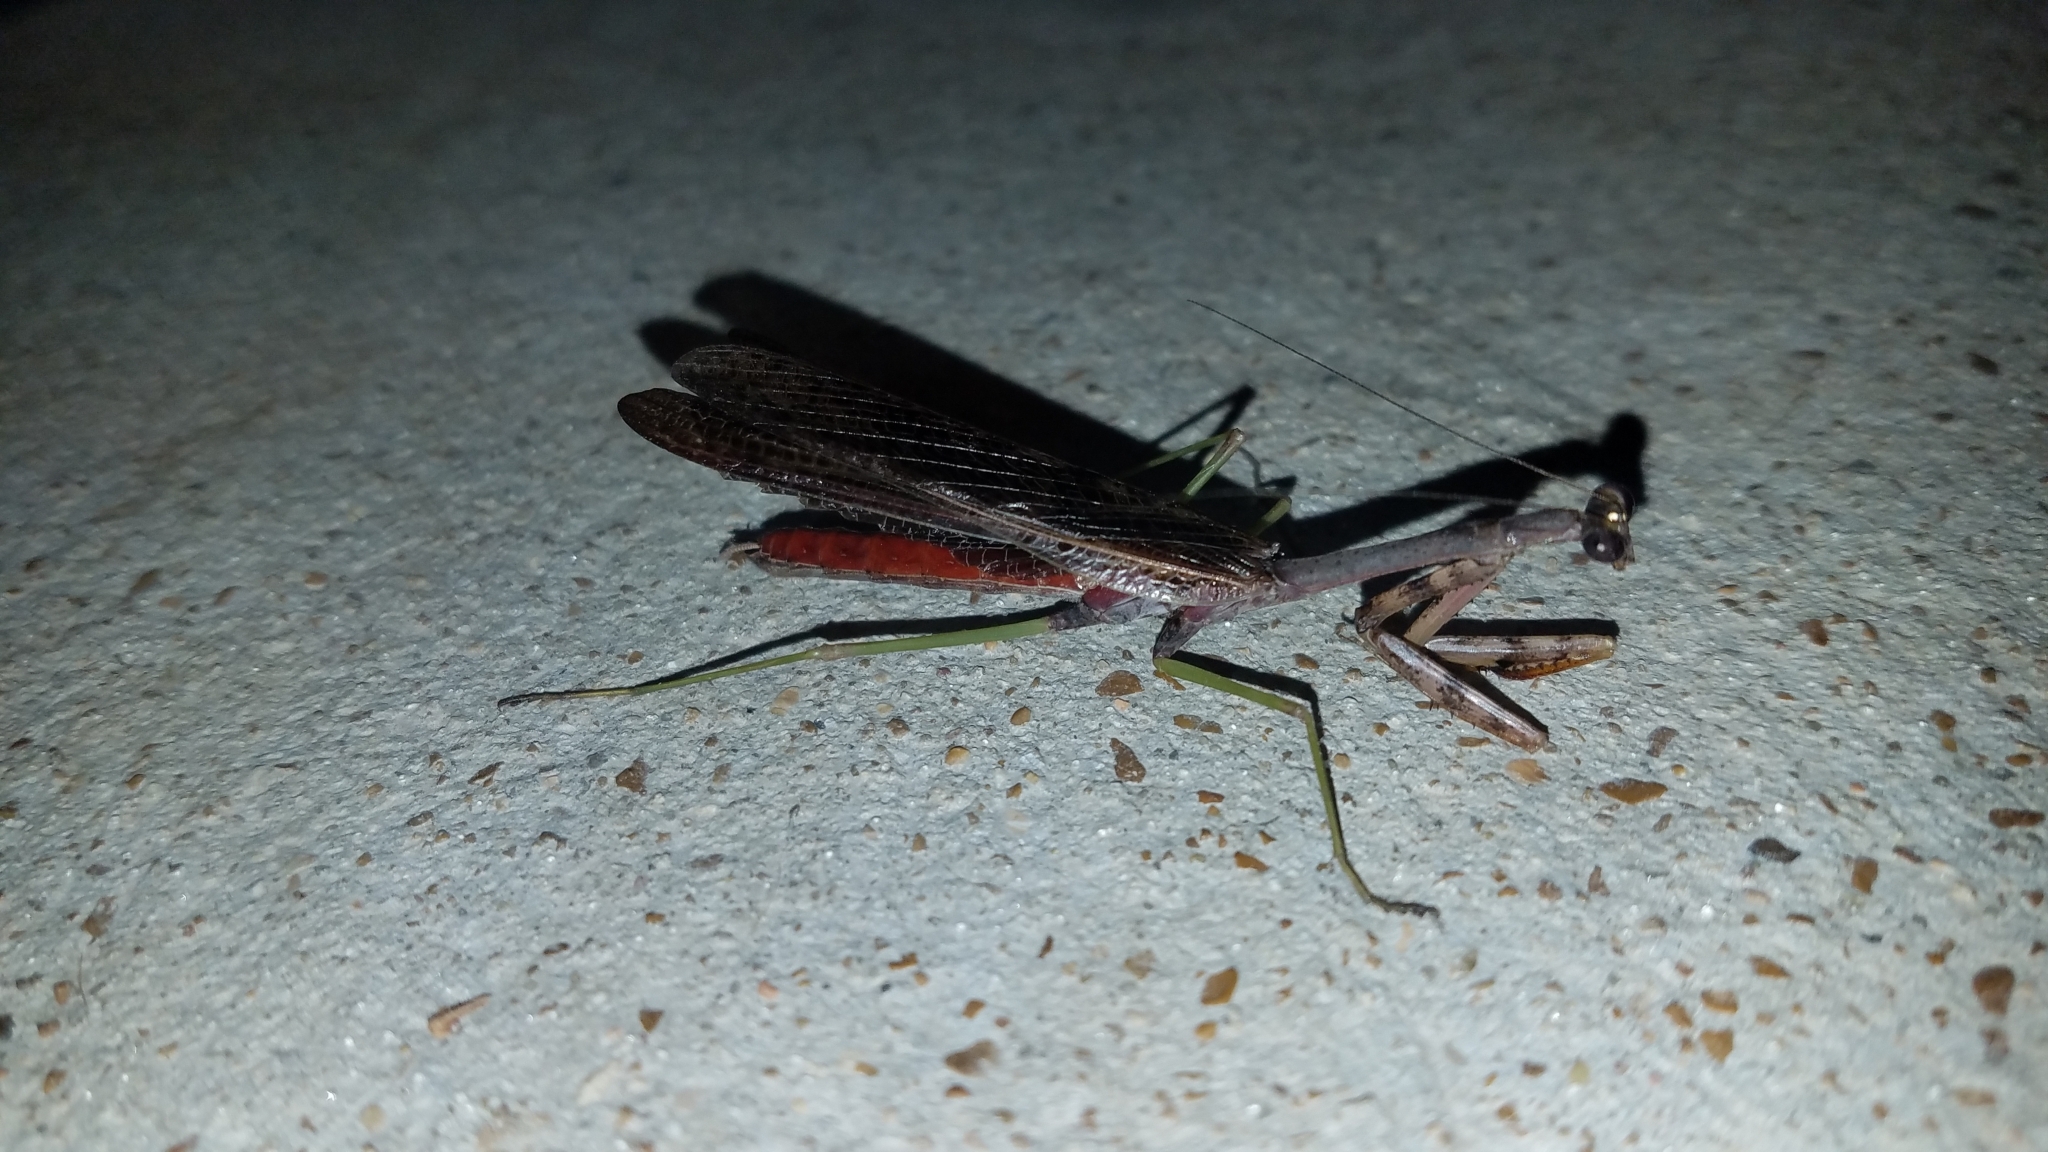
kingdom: Animalia
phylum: Arthropoda
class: Insecta
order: Mantodea
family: Mantidae
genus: Stagmomantis
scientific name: Stagmomantis carolina
